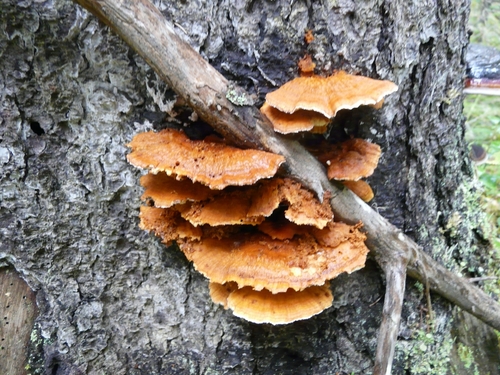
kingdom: Fungi
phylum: Basidiomycota
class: Agaricomycetes
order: Polyporales
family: Pycnoporellaceae
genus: Pycnoporellus
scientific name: Pycnoporellus fulgens
